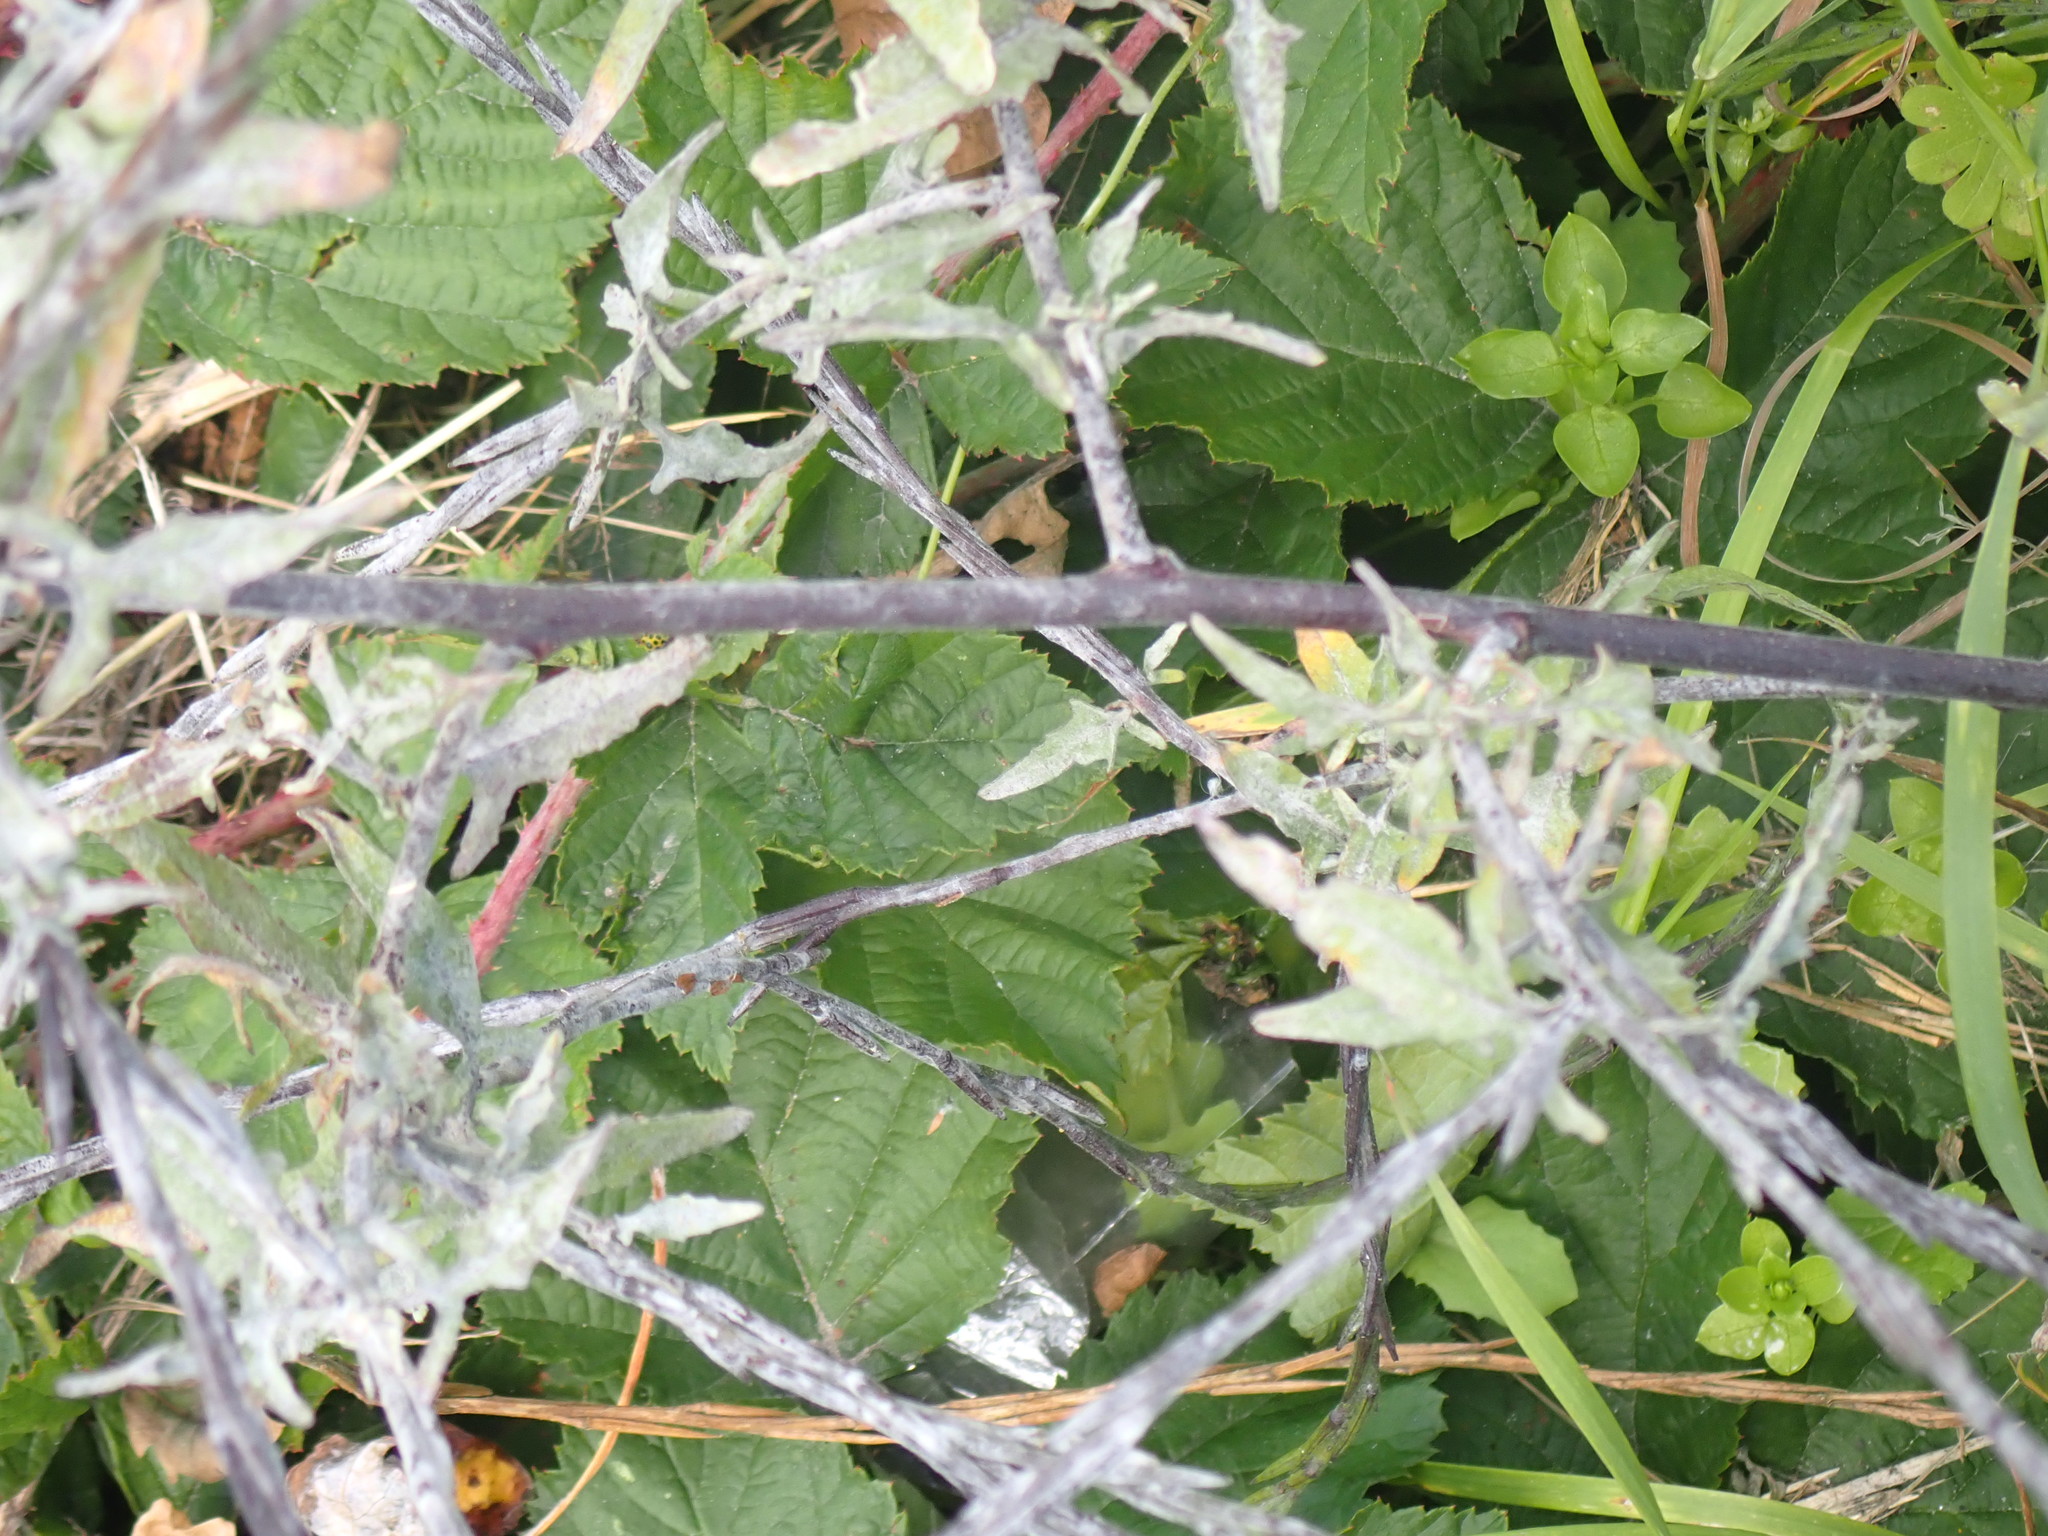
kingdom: Plantae
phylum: Tracheophyta
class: Magnoliopsida
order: Brassicales
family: Brassicaceae
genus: Sisymbrium
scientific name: Sisymbrium officinale
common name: Hedge mustard
